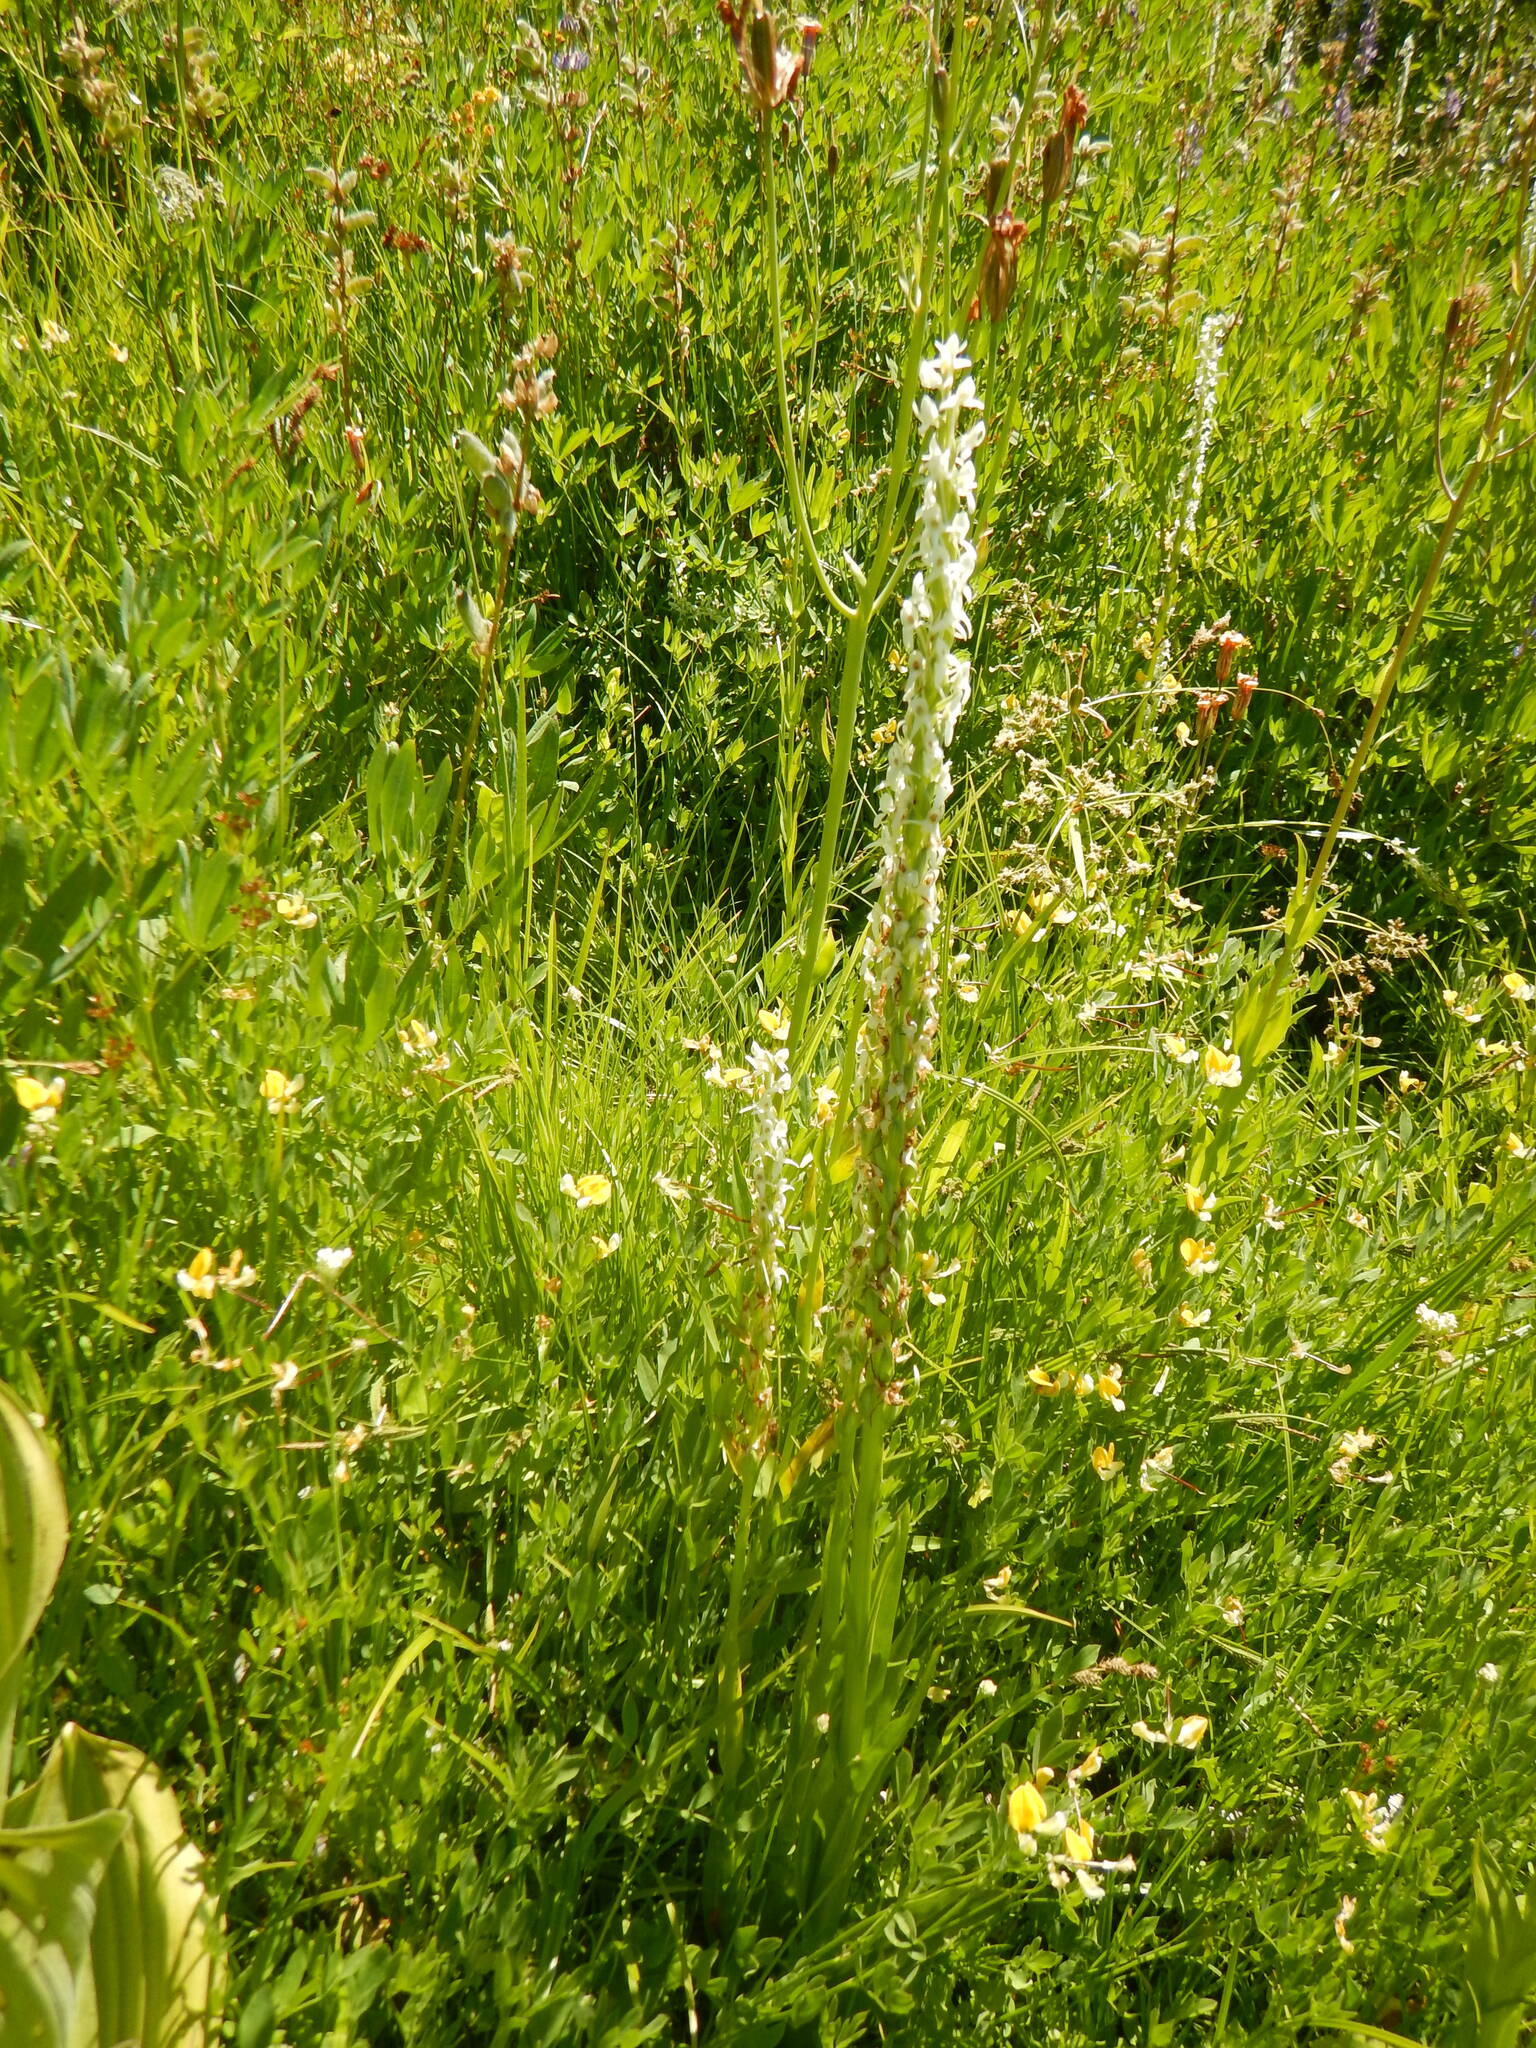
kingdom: Plantae
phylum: Tracheophyta
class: Liliopsida
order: Asparagales
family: Orchidaceae
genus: Platanthera
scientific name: Platanthera dilatata
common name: Bog candles
